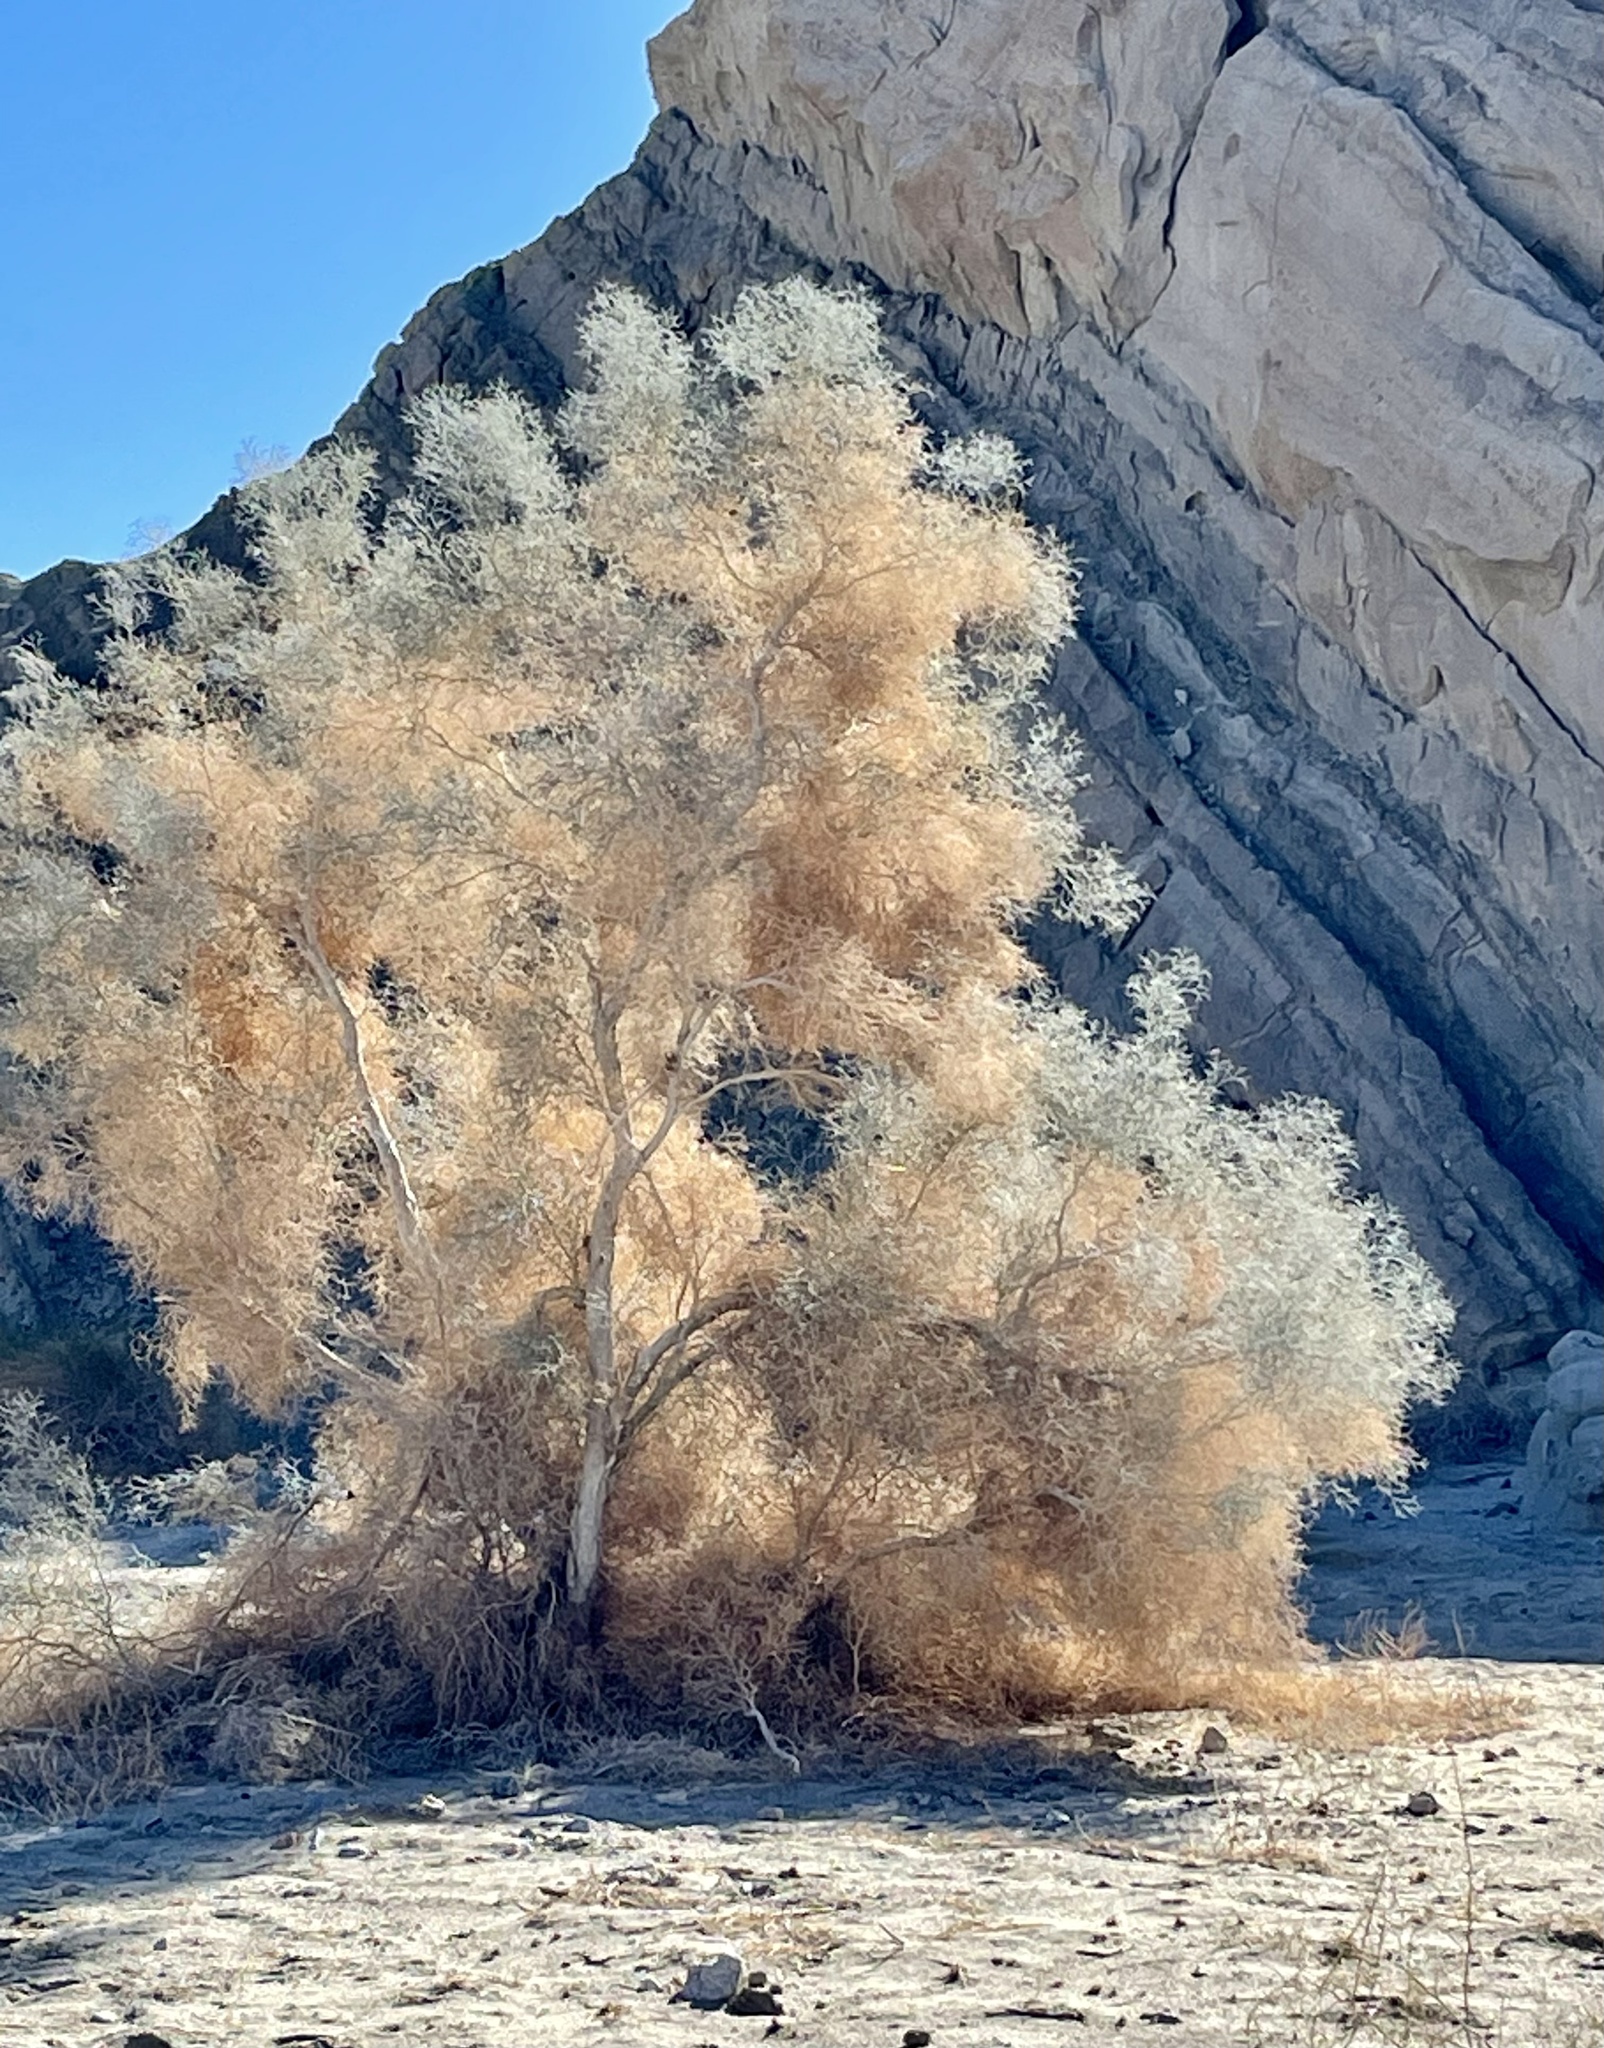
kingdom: Plantae
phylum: Tracheophyta
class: Magnoliopsida
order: Fabales
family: Fabaceae
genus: Psorothamnus
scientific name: Psorothamnus spinosus
